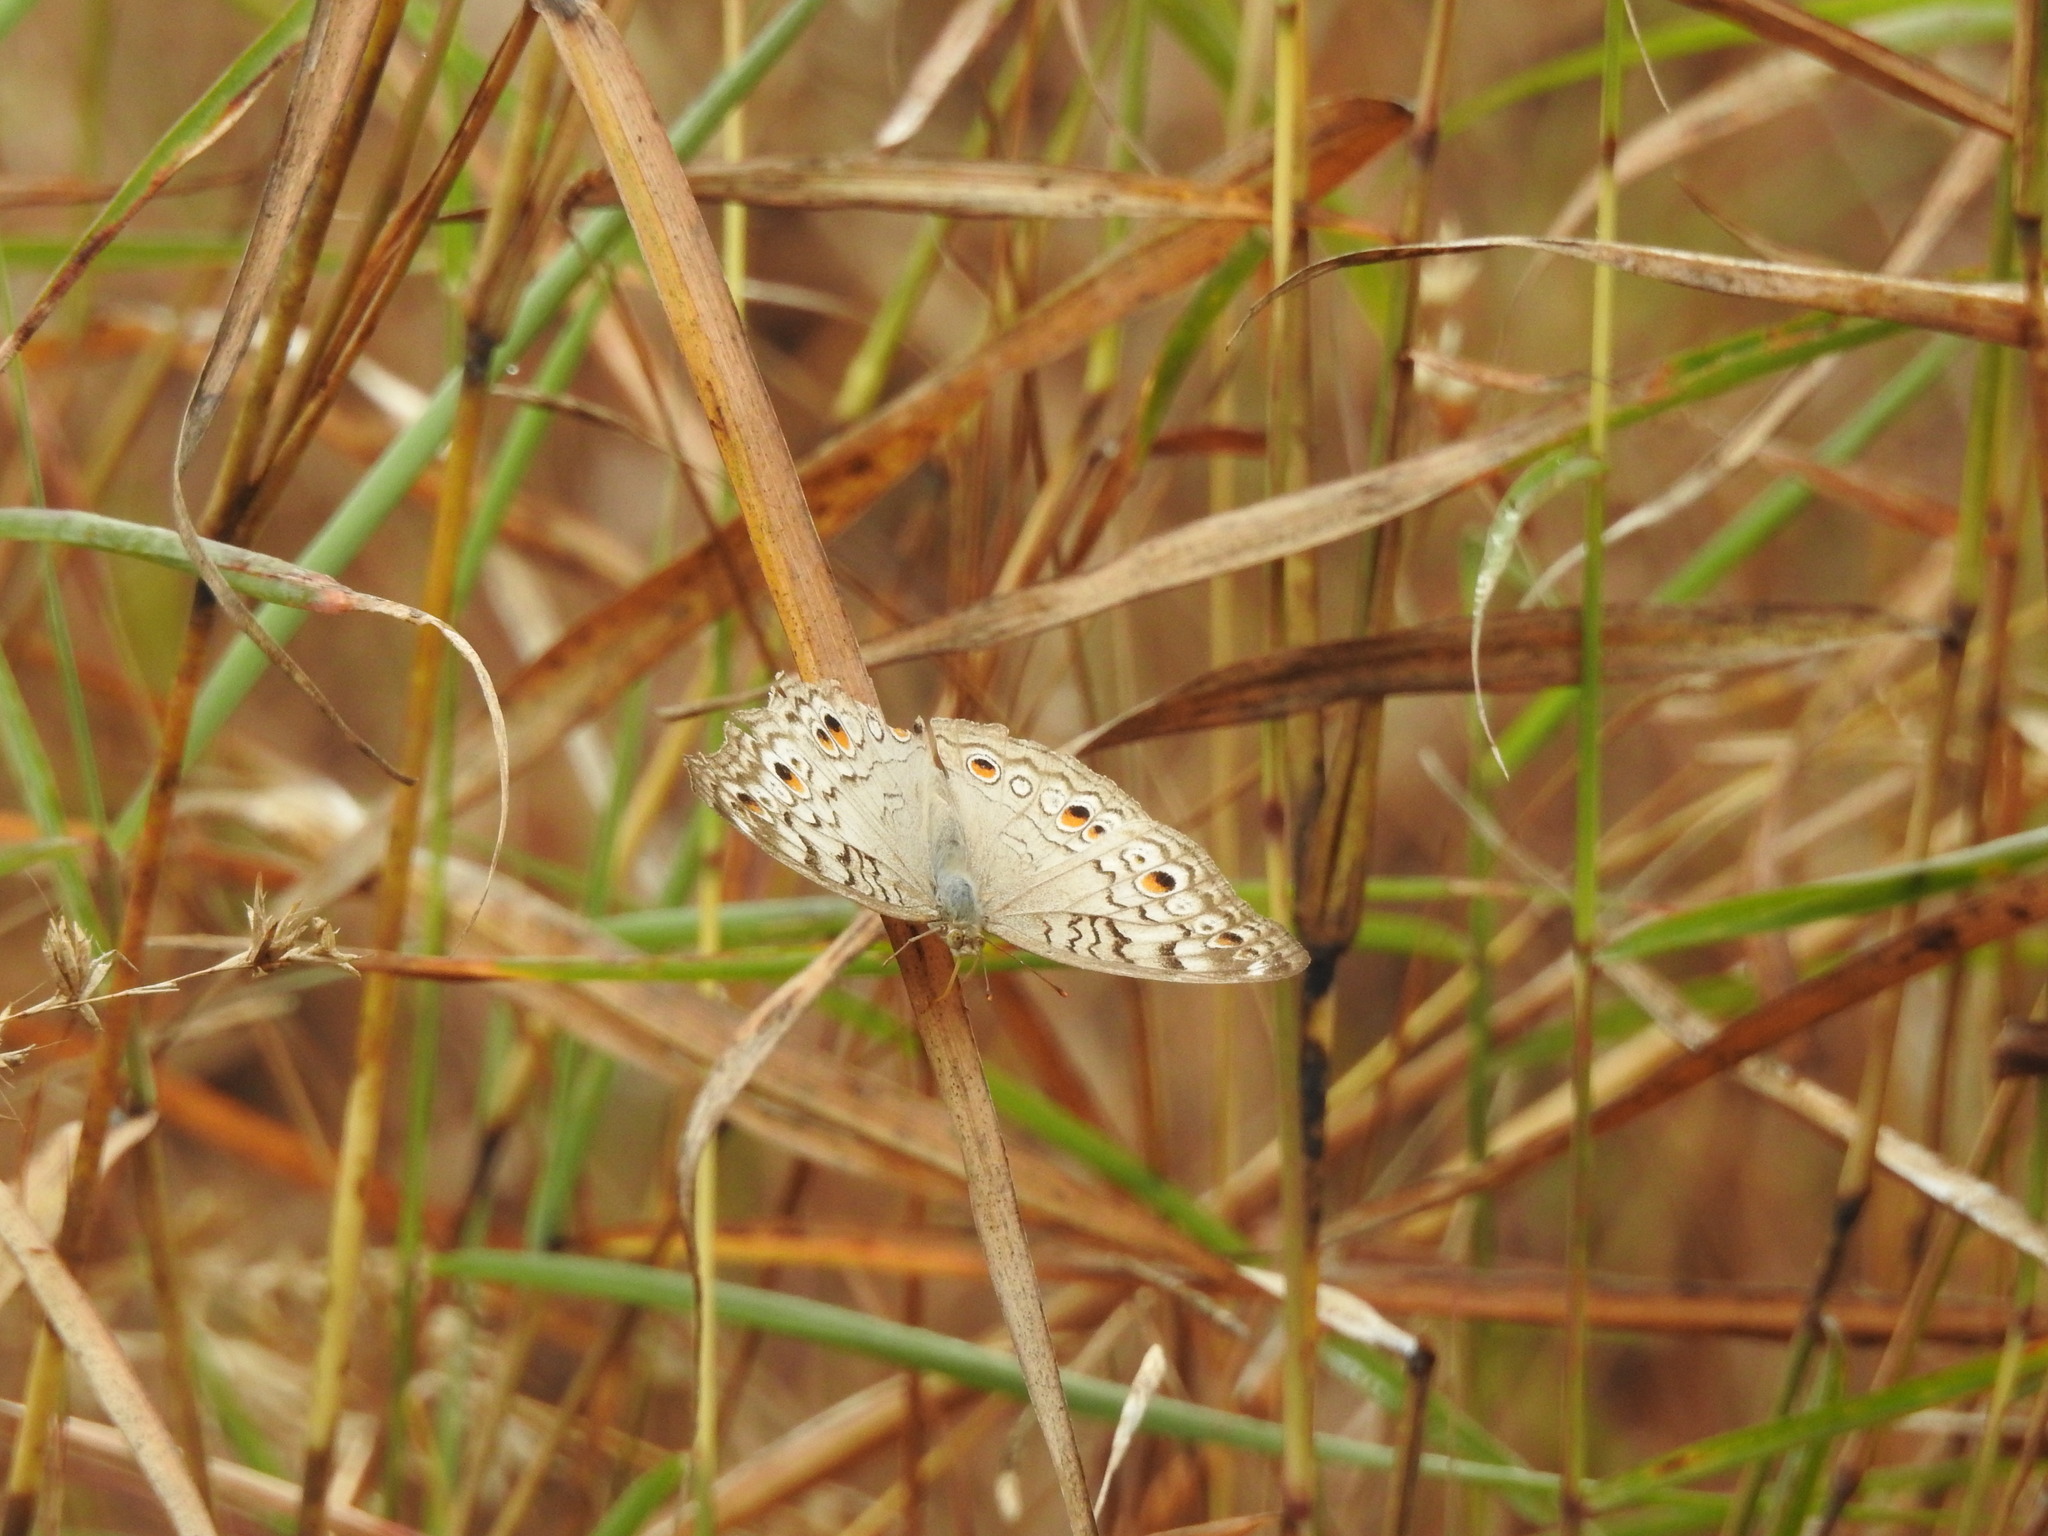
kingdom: Animalia
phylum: Arthropoda
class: Insecta
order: Lepidoptera
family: Nymphalidae
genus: Junonia
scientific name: Junonia atlites
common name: Grey pansy
